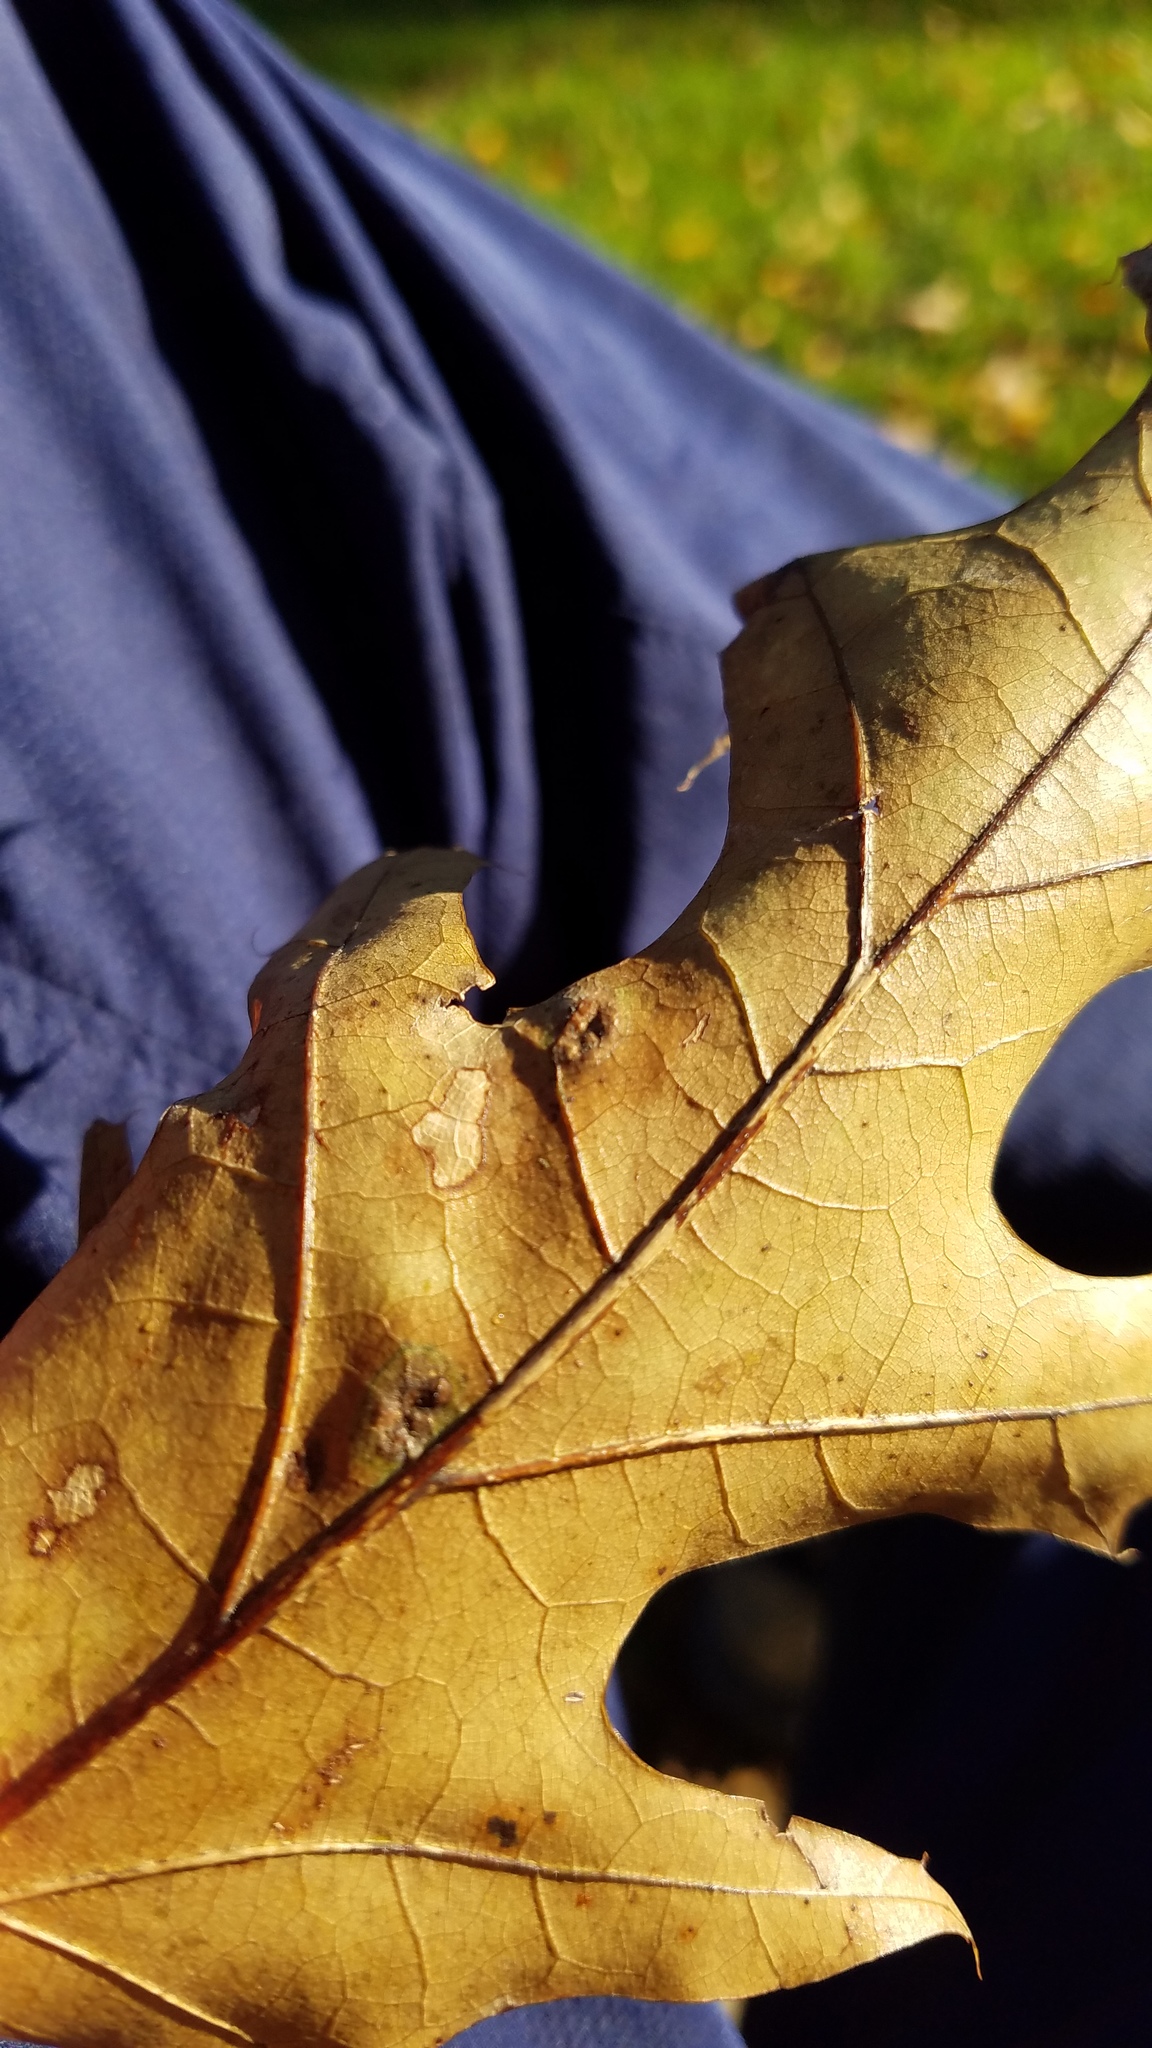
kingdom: Animalia
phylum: Arthropoda
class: Insecta
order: Diptera
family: Cecidomyiidae
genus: Polystepha
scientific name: Polystepha pilulae
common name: Oak leaf gall midge
